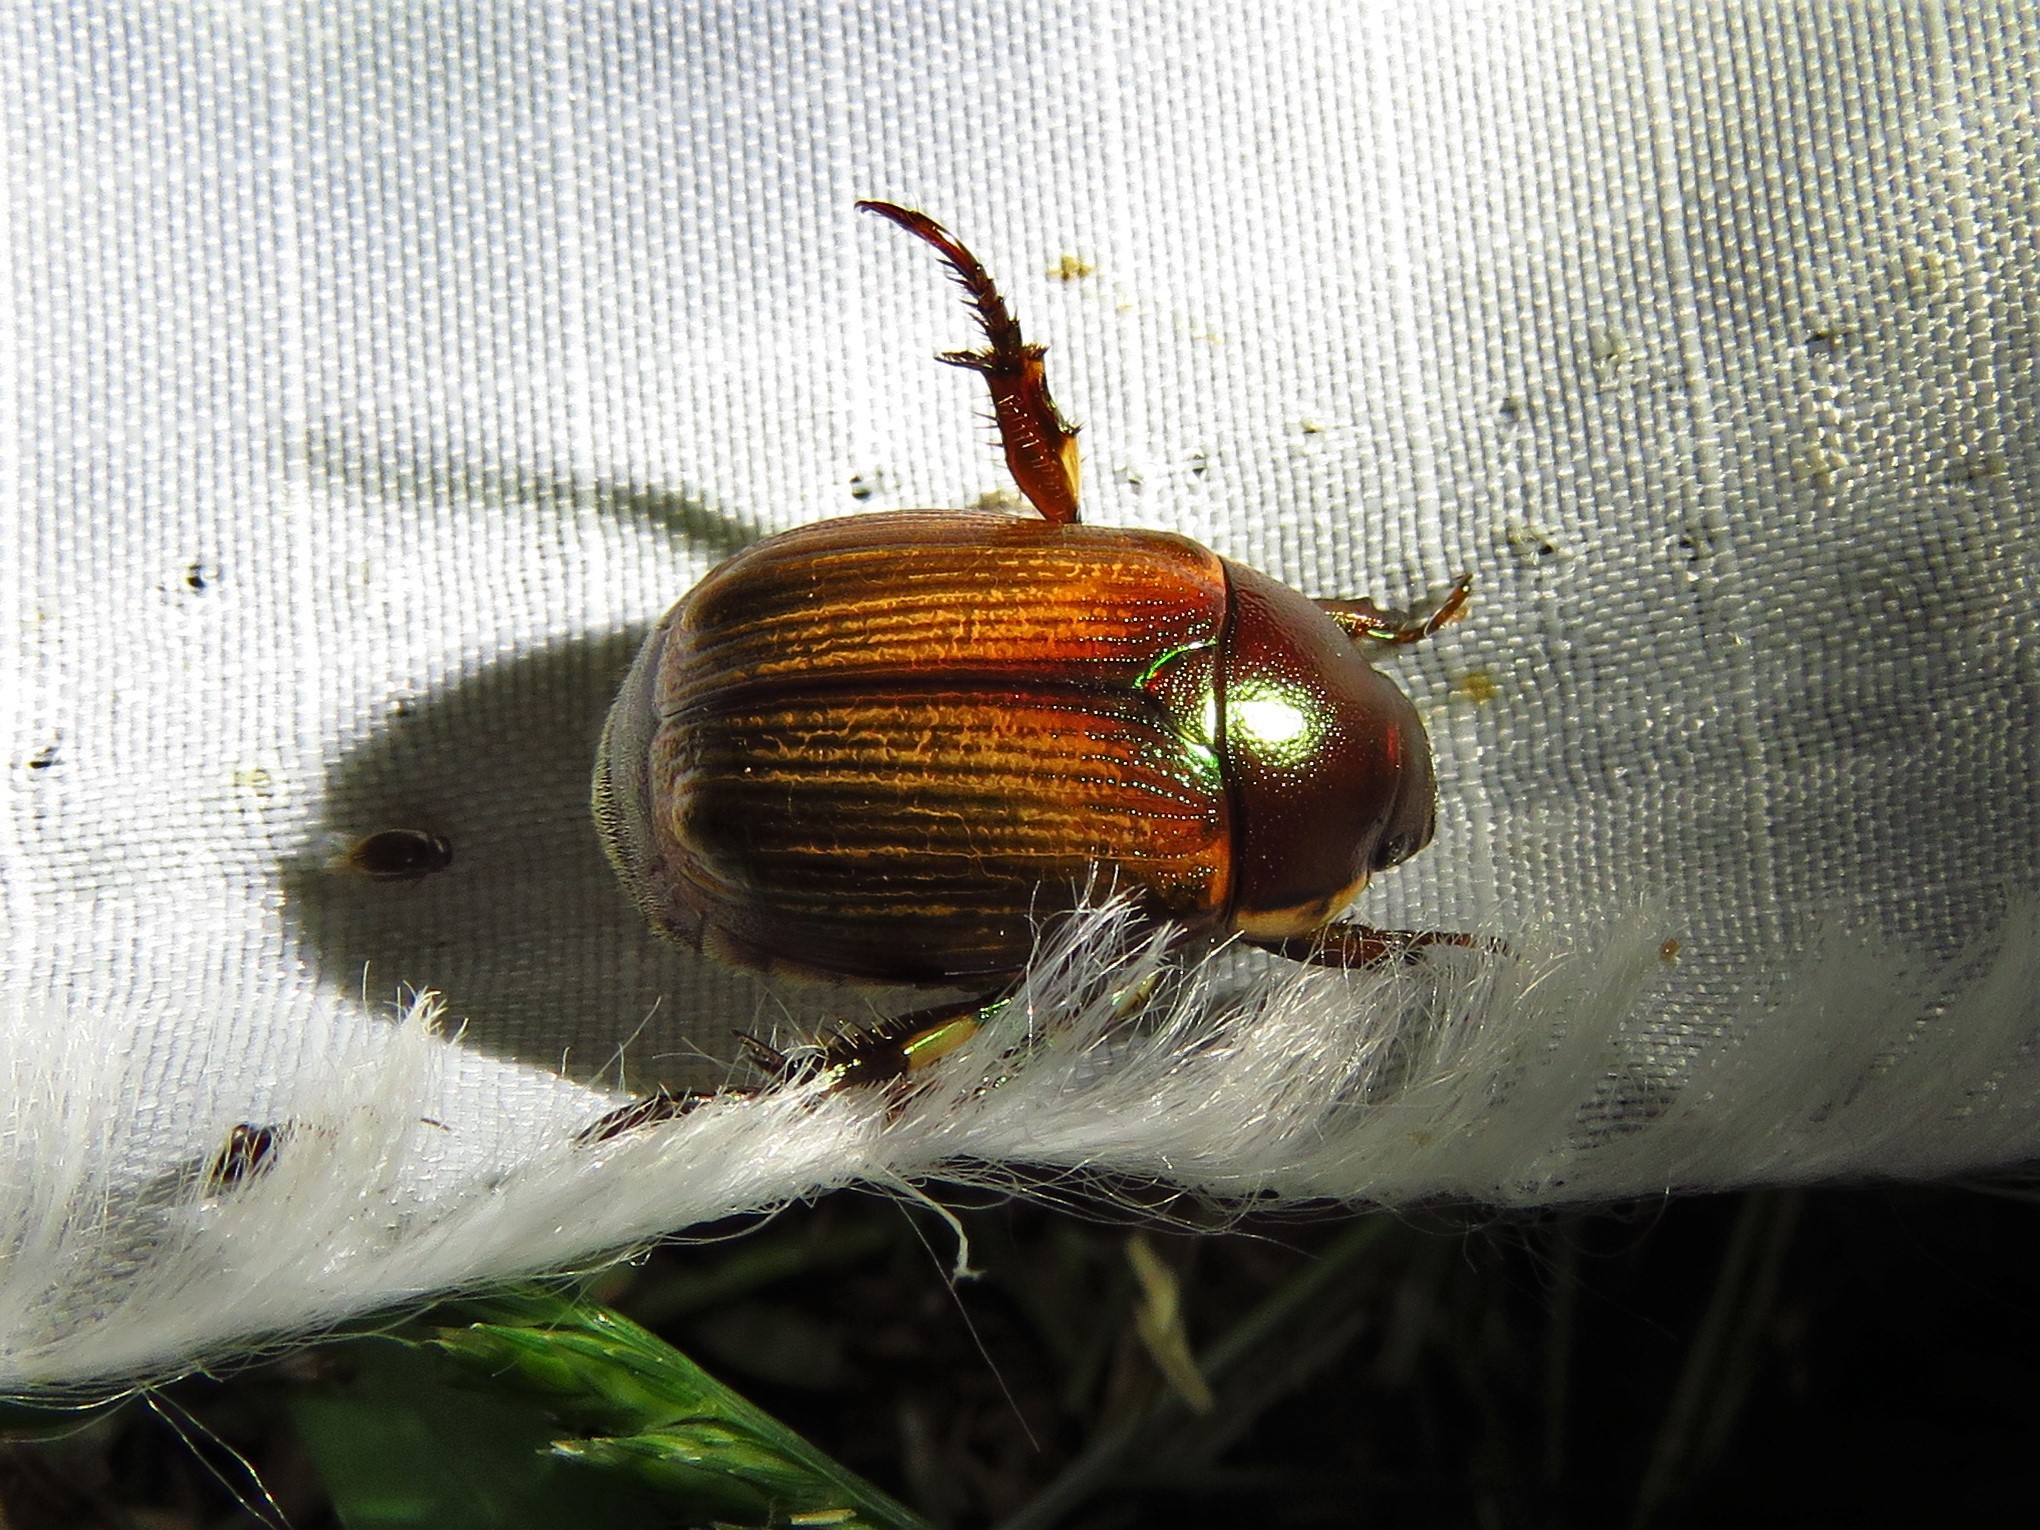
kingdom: Animalia
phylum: Arthropoda
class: Insecta
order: Coleoptera
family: Scarabaeidae
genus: Callistethus
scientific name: Callistethus marginatus
